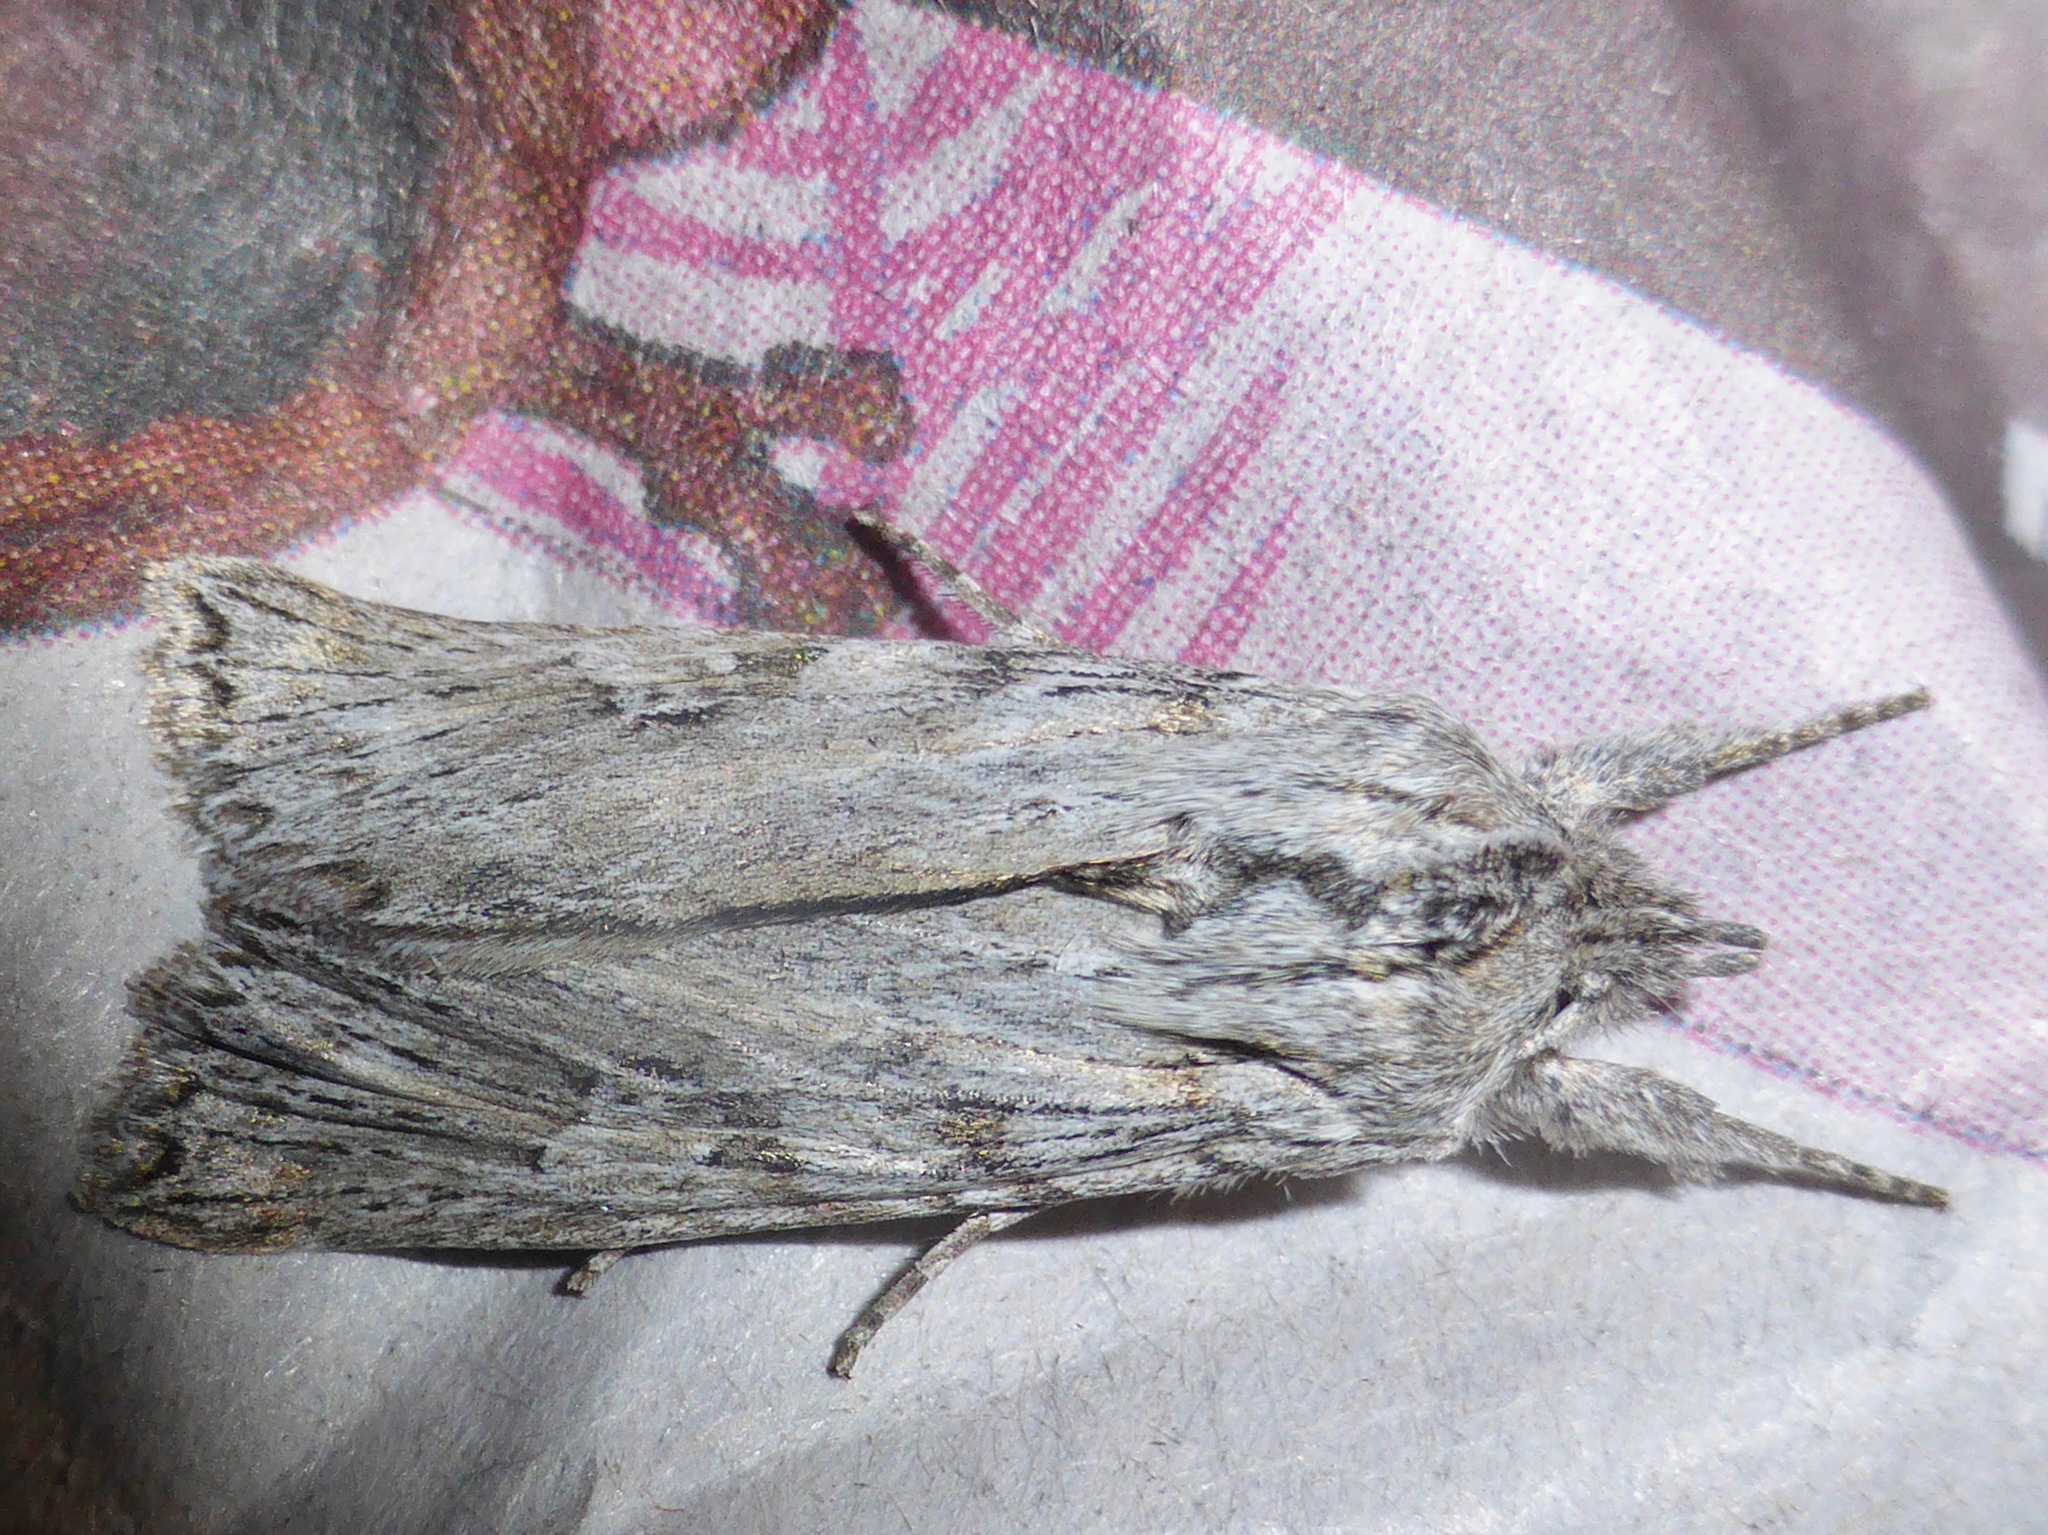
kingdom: Animalia
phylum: Arthropoda
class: Insecta
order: Lepidoptera
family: Noctuidae
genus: Physetica
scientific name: Physetica phricias
